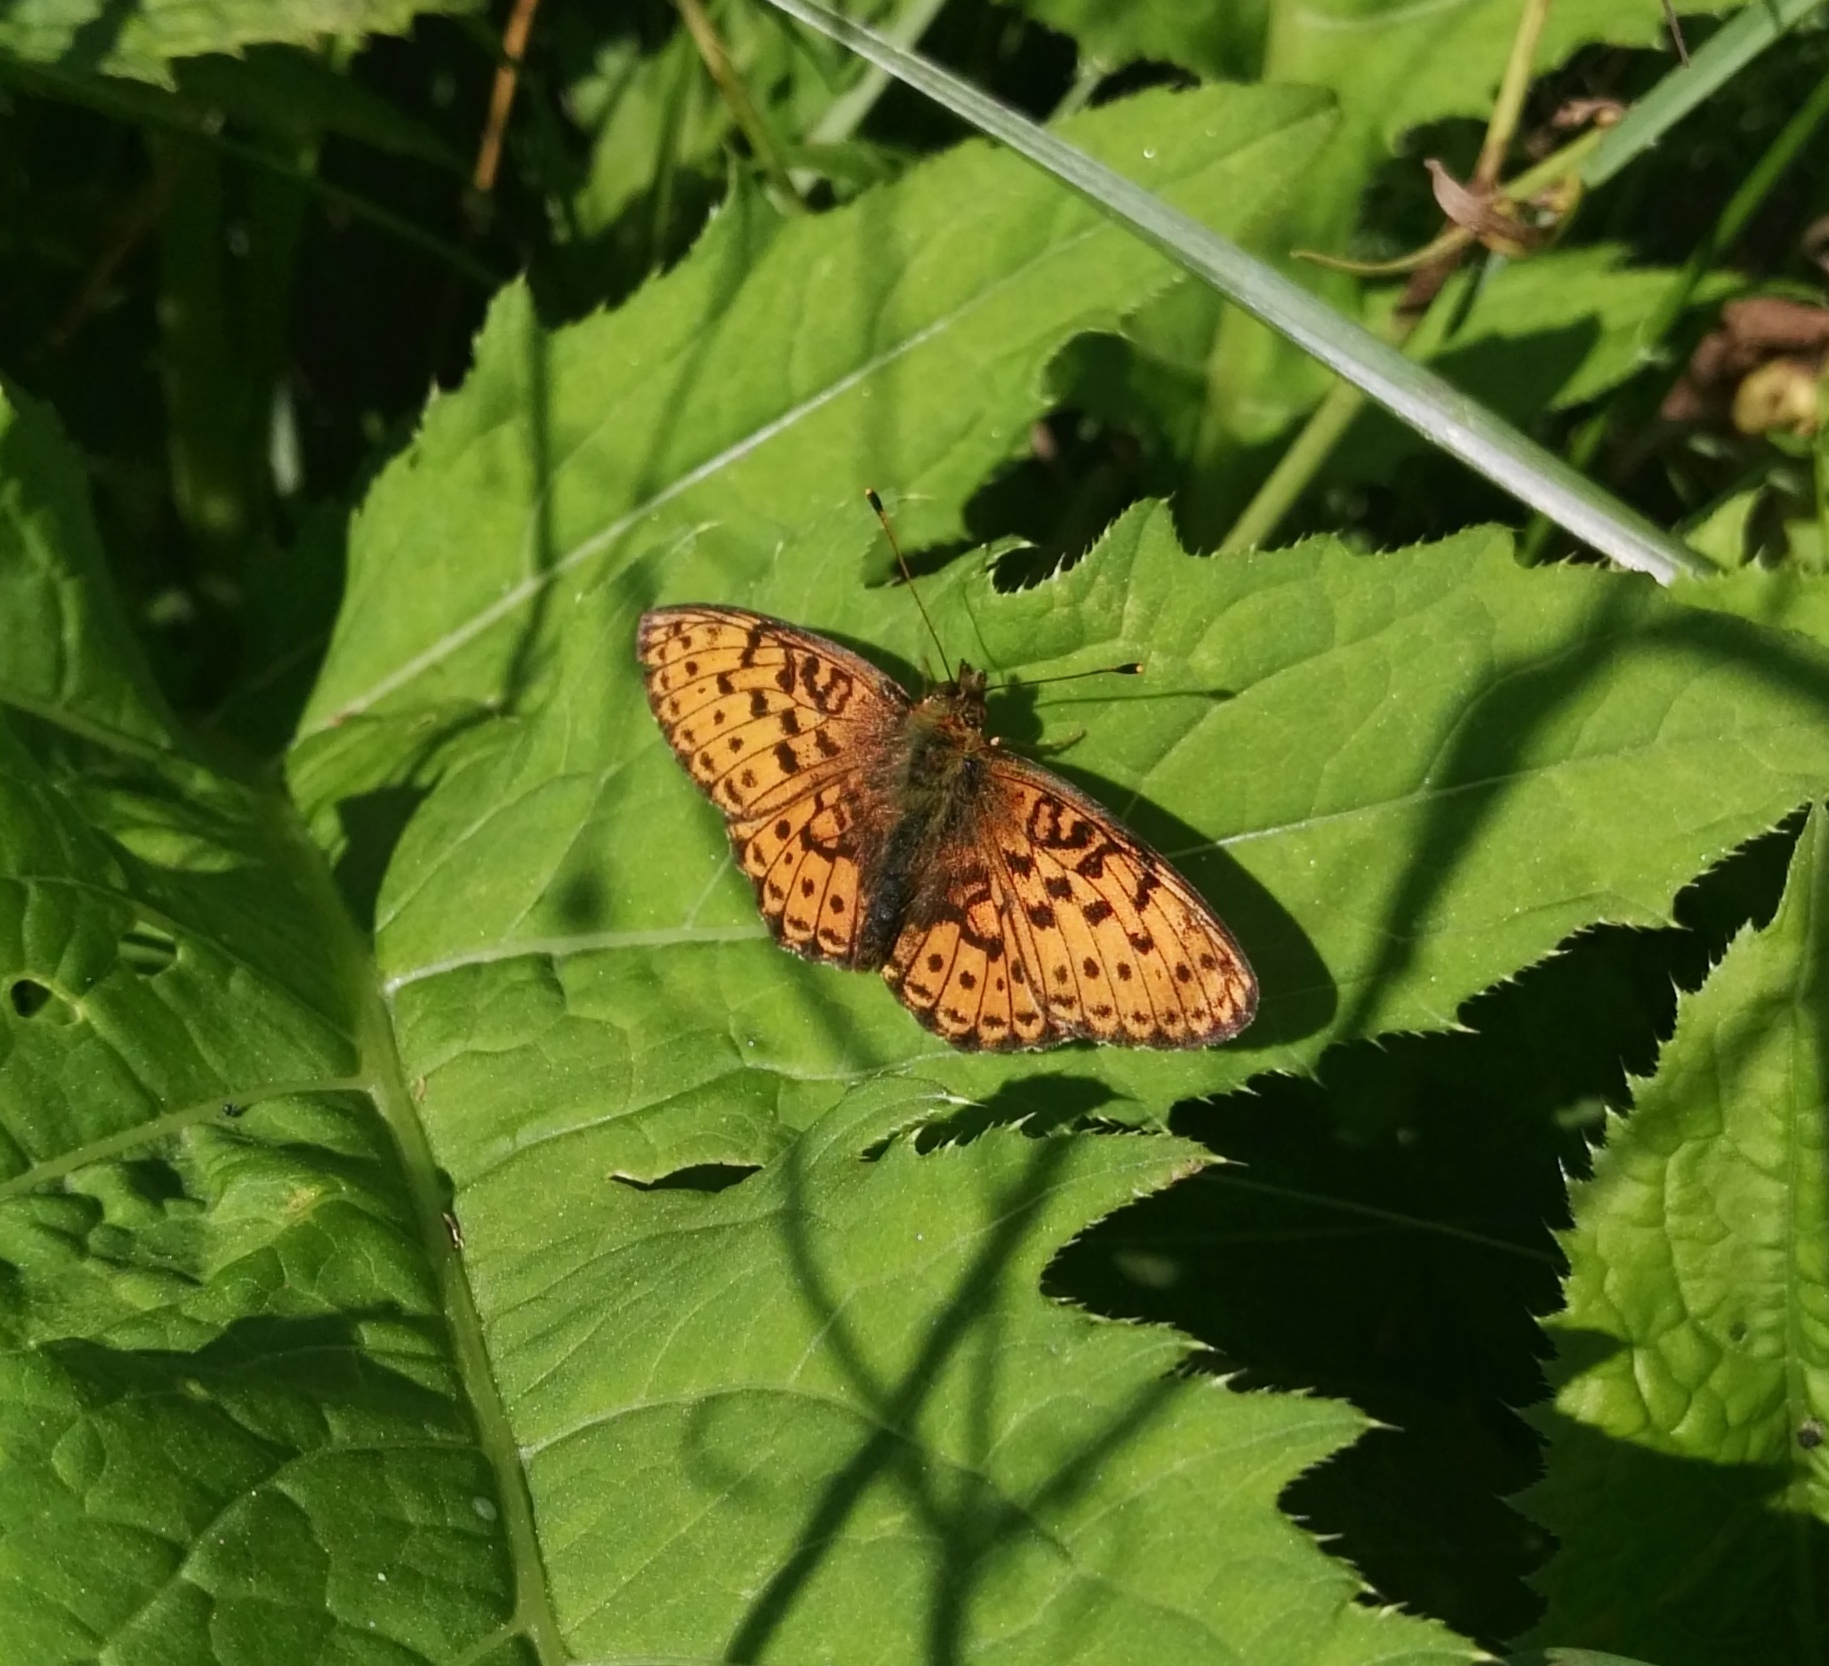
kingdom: Animalia
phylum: Arthropoda
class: Insecta
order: Lepidoptera
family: Nymphalidae
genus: Brenthis
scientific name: Brenthis ino
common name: Lesser marbled fritillary
